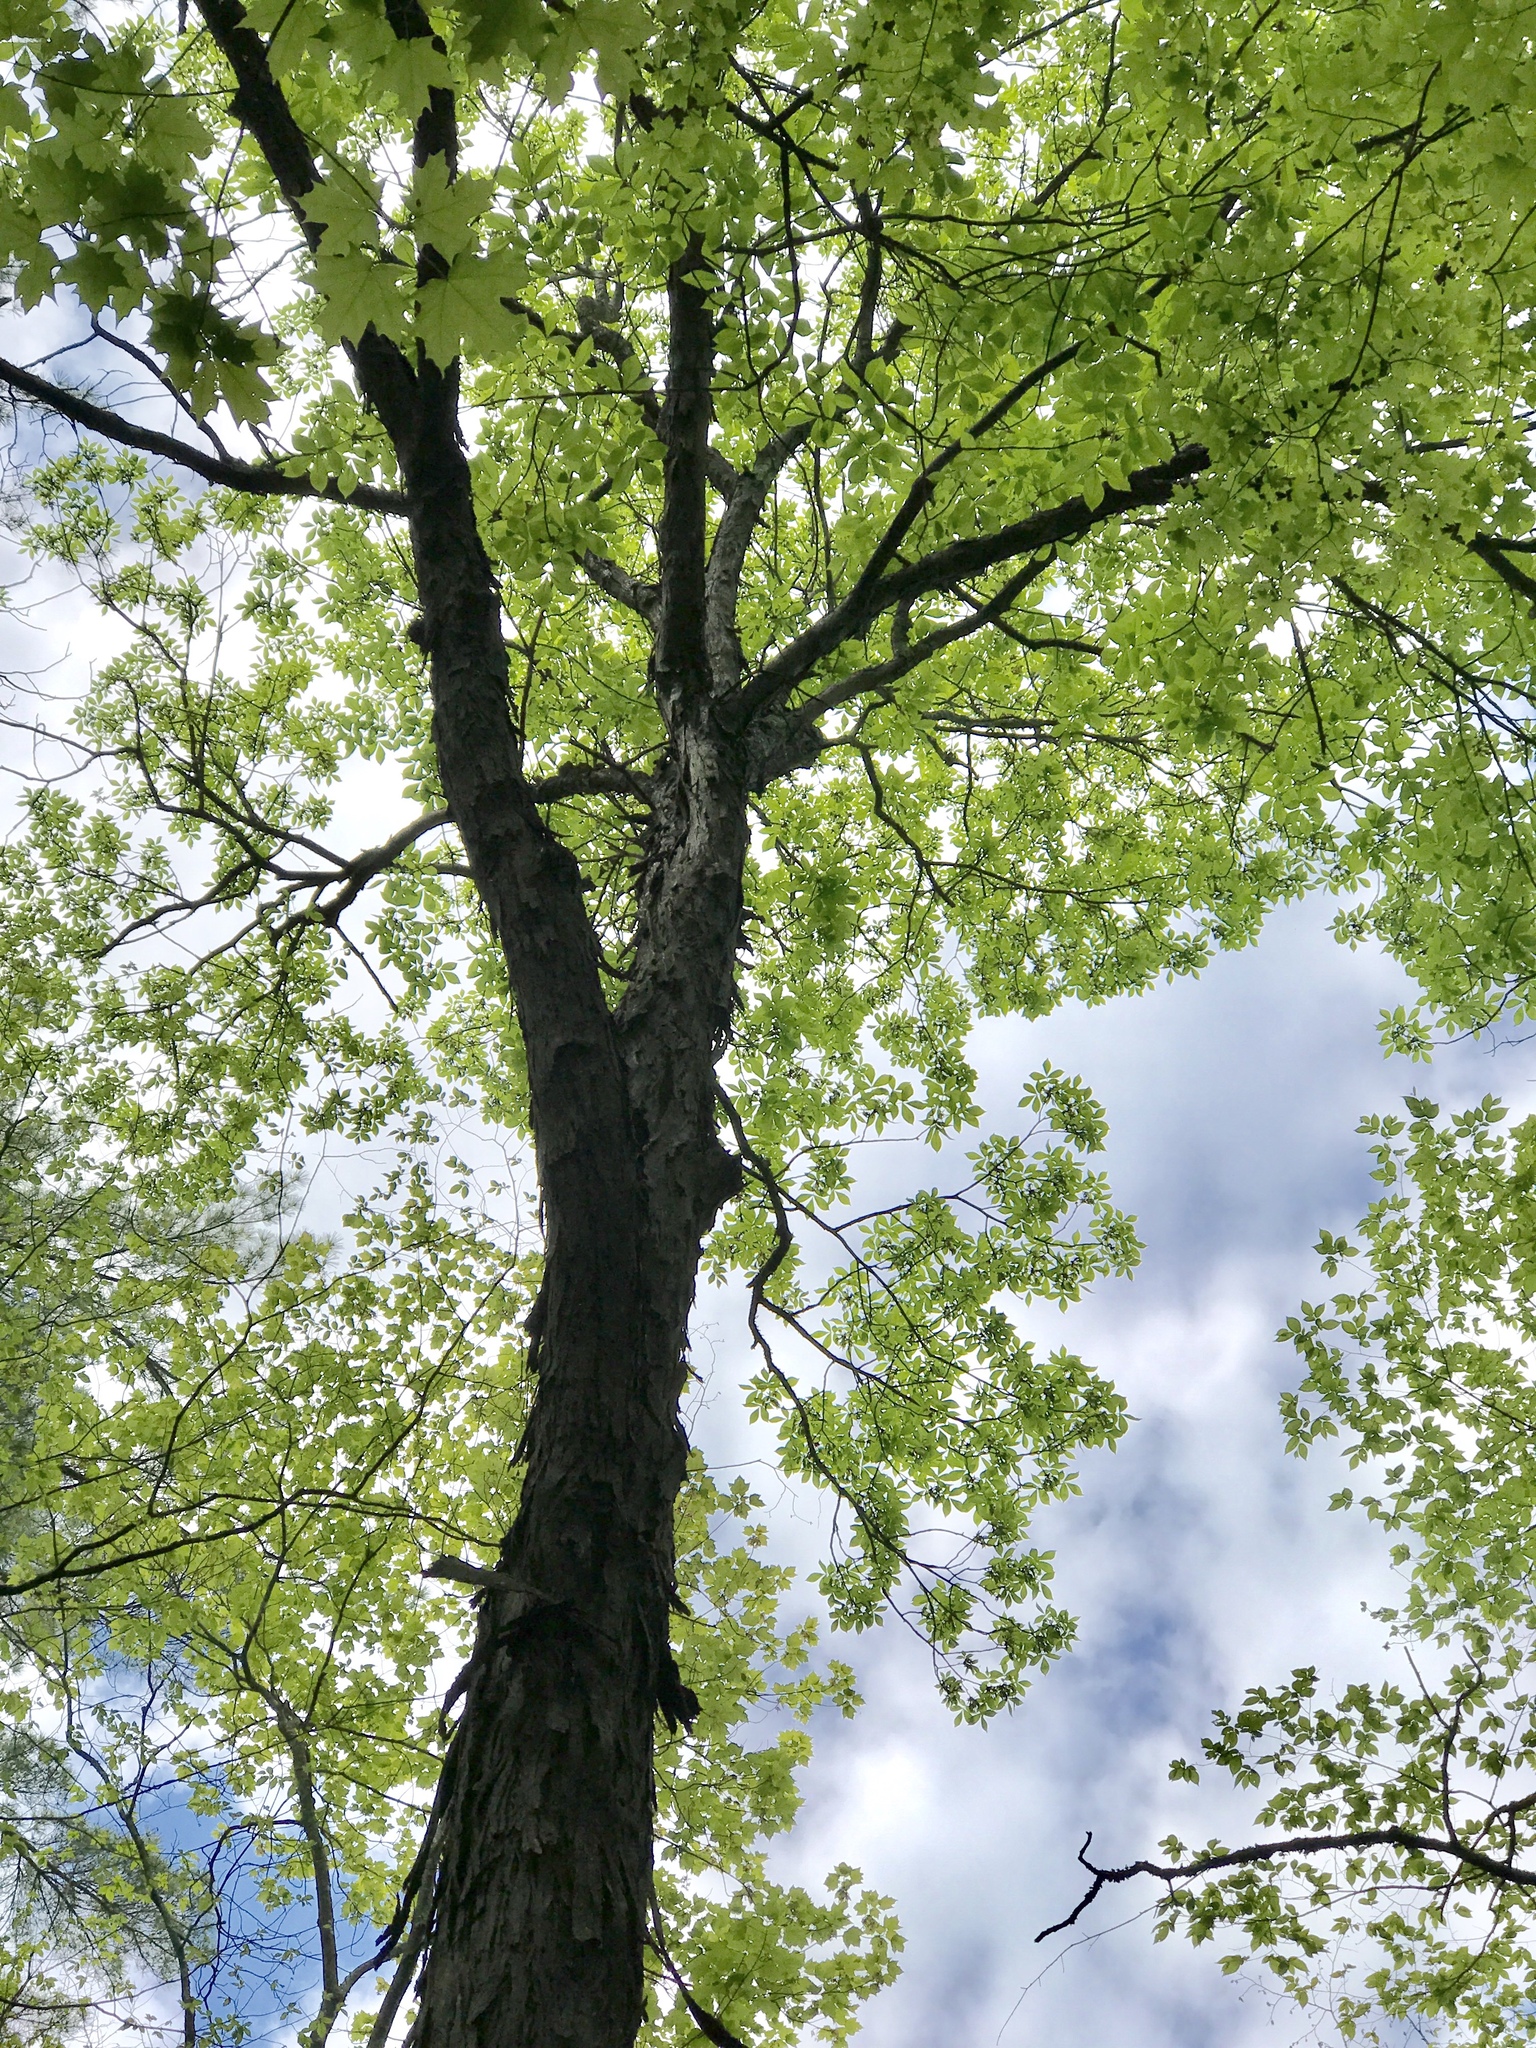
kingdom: Plantae
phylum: Tracheophyta
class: Magnoliopsida
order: Fagales
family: Juglandaceae
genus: Carya
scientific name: Carya ovata
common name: Shagbark hickory
